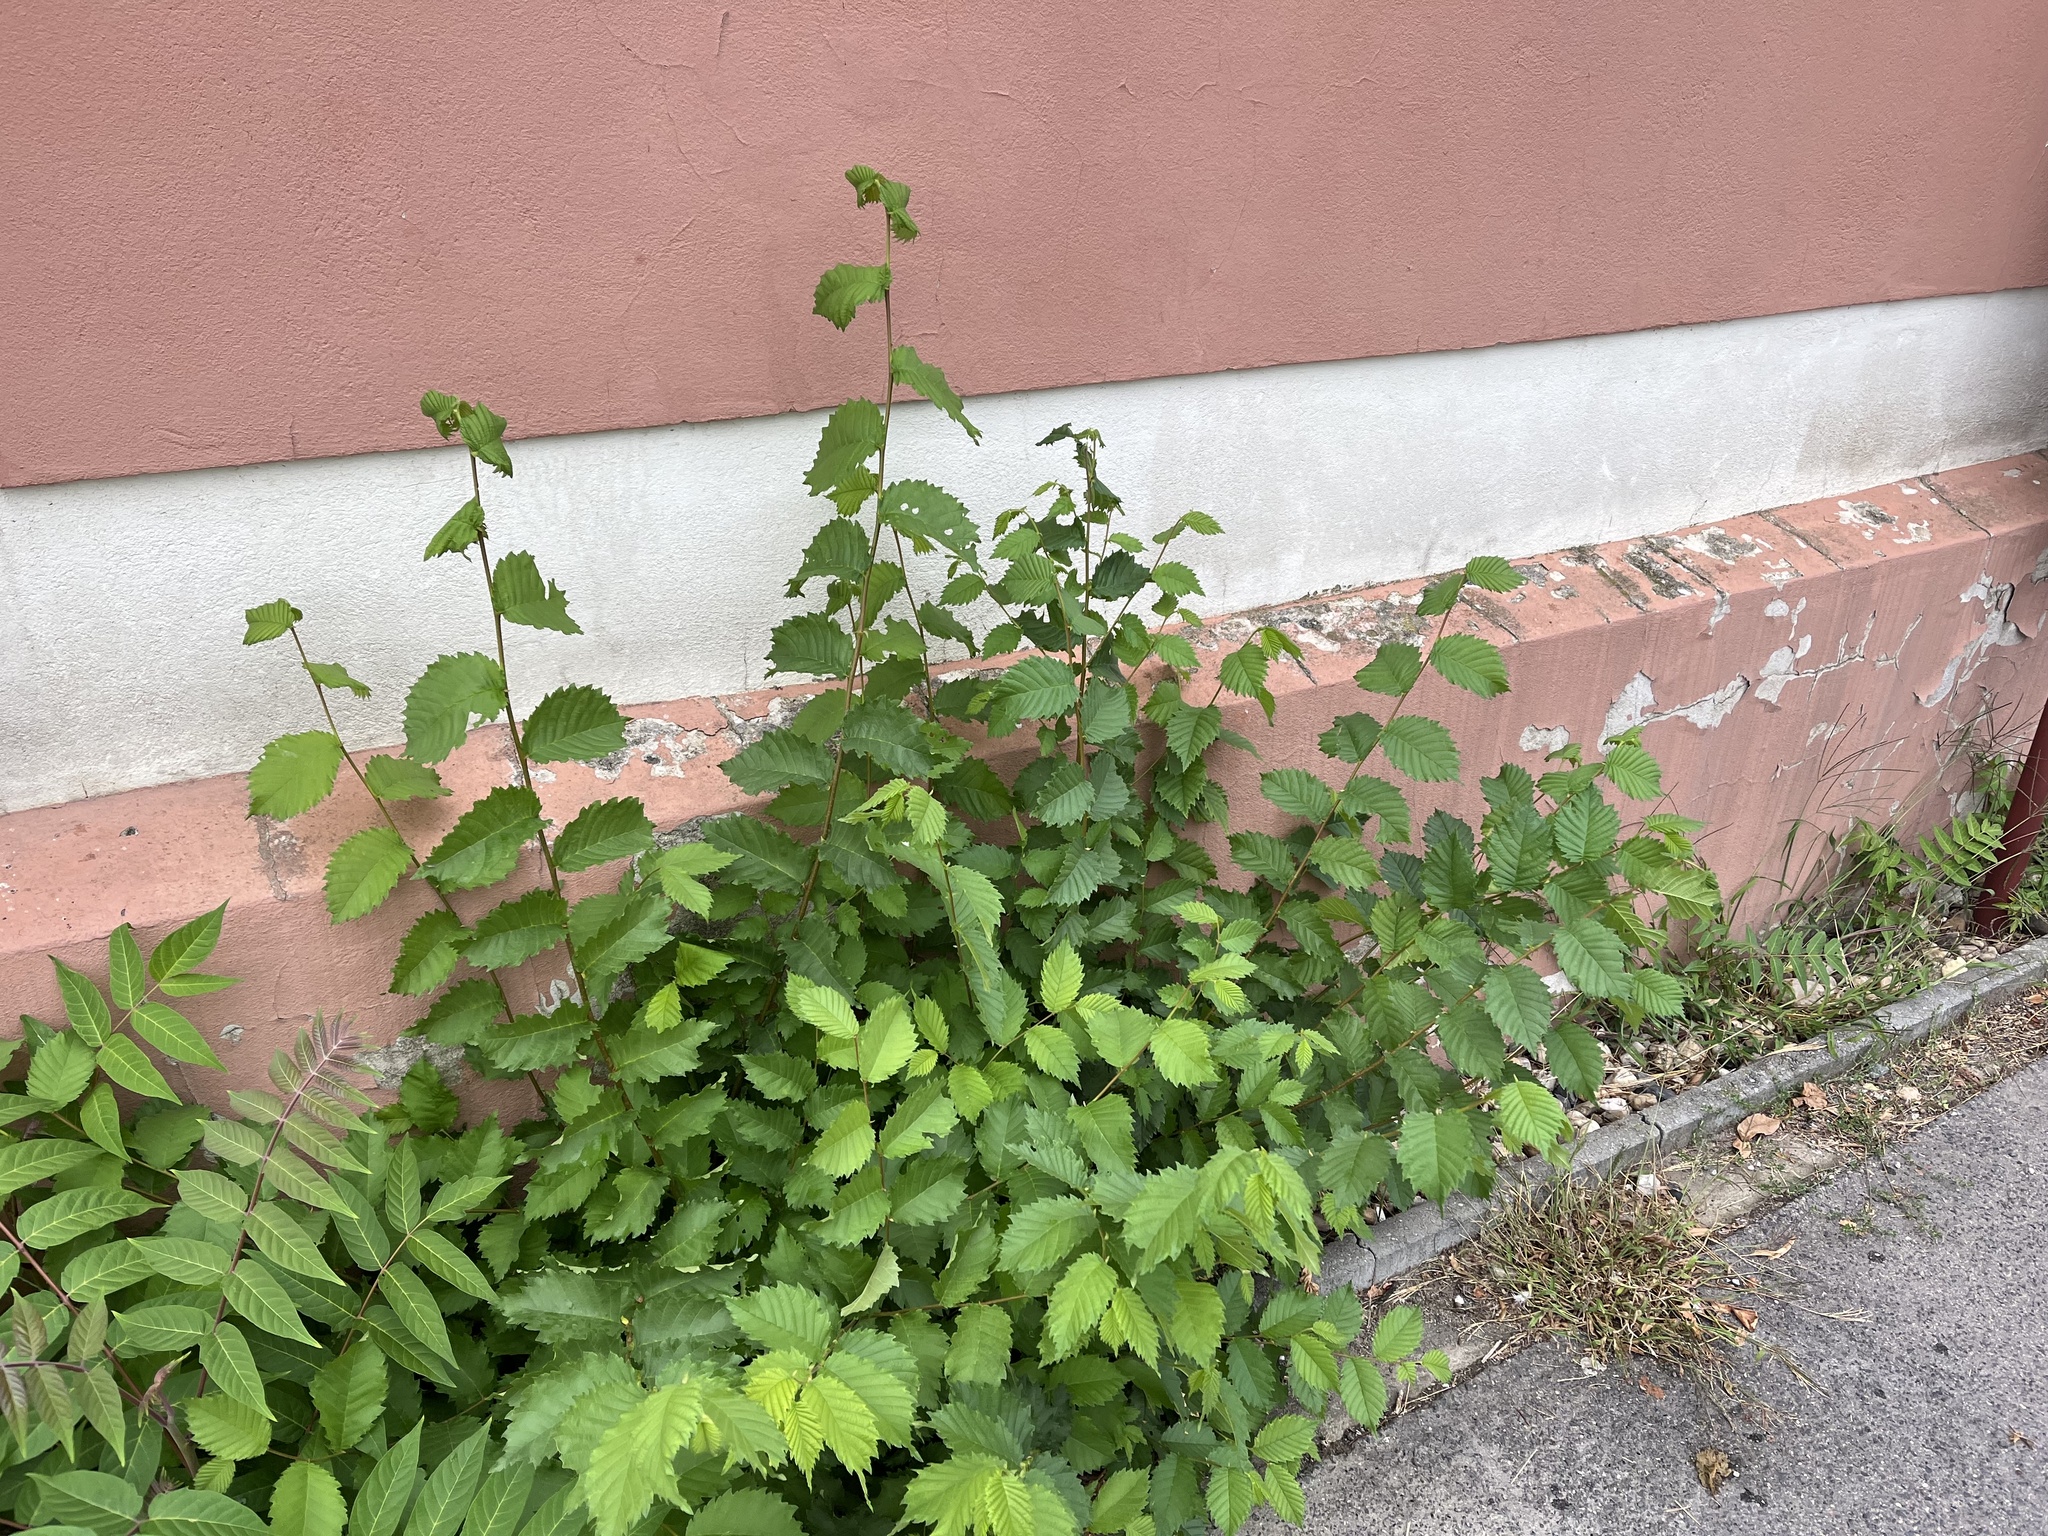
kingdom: Plantae
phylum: Tracheophyta
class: Magnoliopsida
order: Rosales
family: Ulmaceae
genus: Ulmus
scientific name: Ulmus minor
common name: Small-leaved elm
